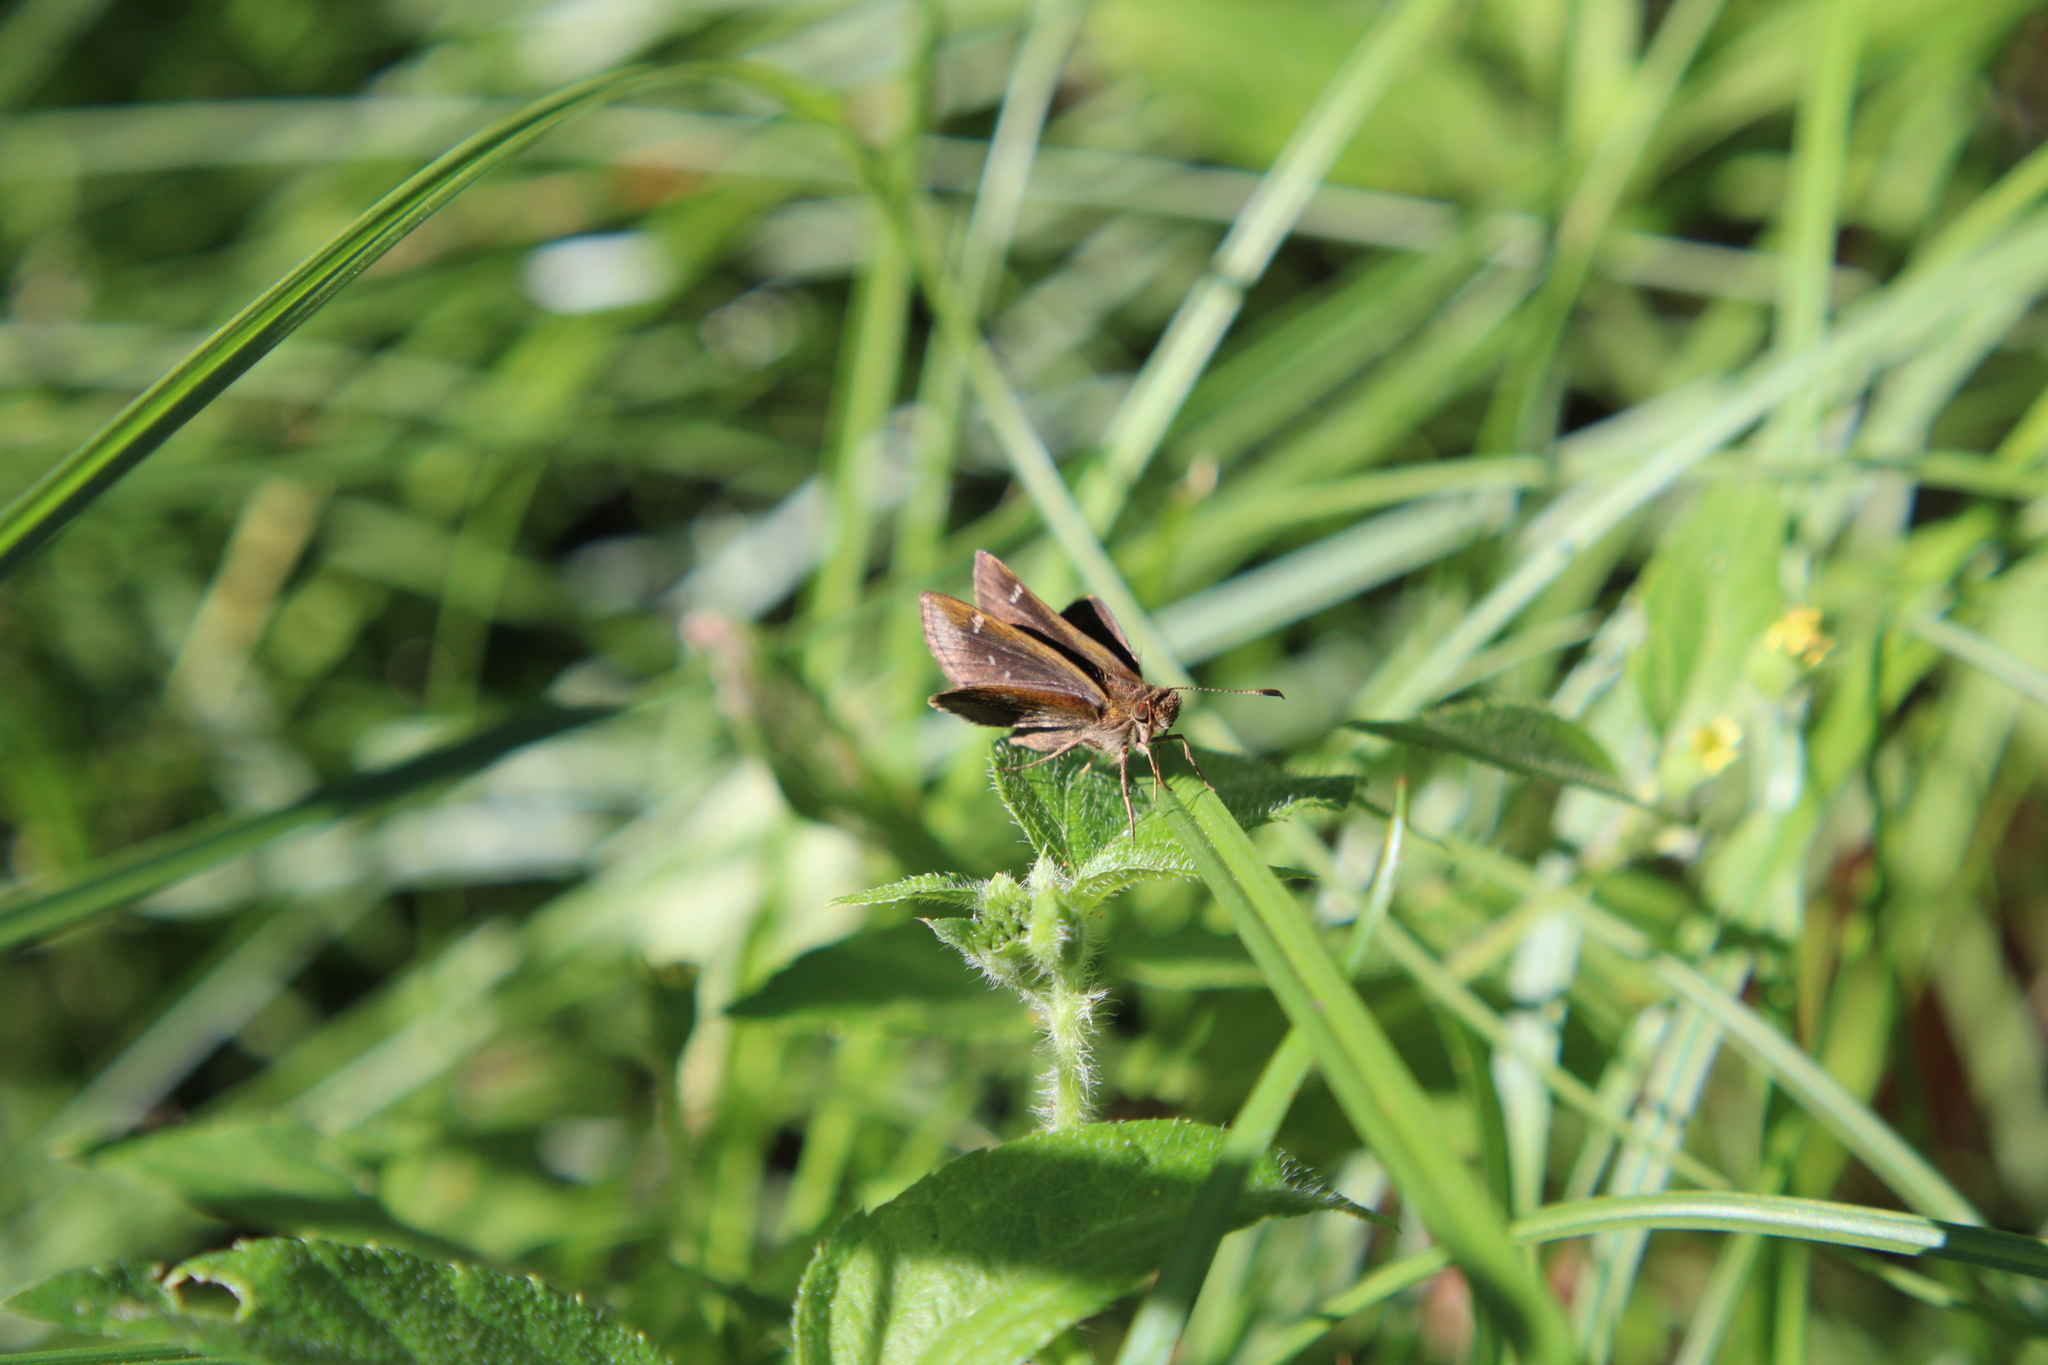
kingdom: Animalia
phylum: Arthropoda
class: Insecta
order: Lepidoptera
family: Hesperiidae
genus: Cymaenes
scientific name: Cymaenes
